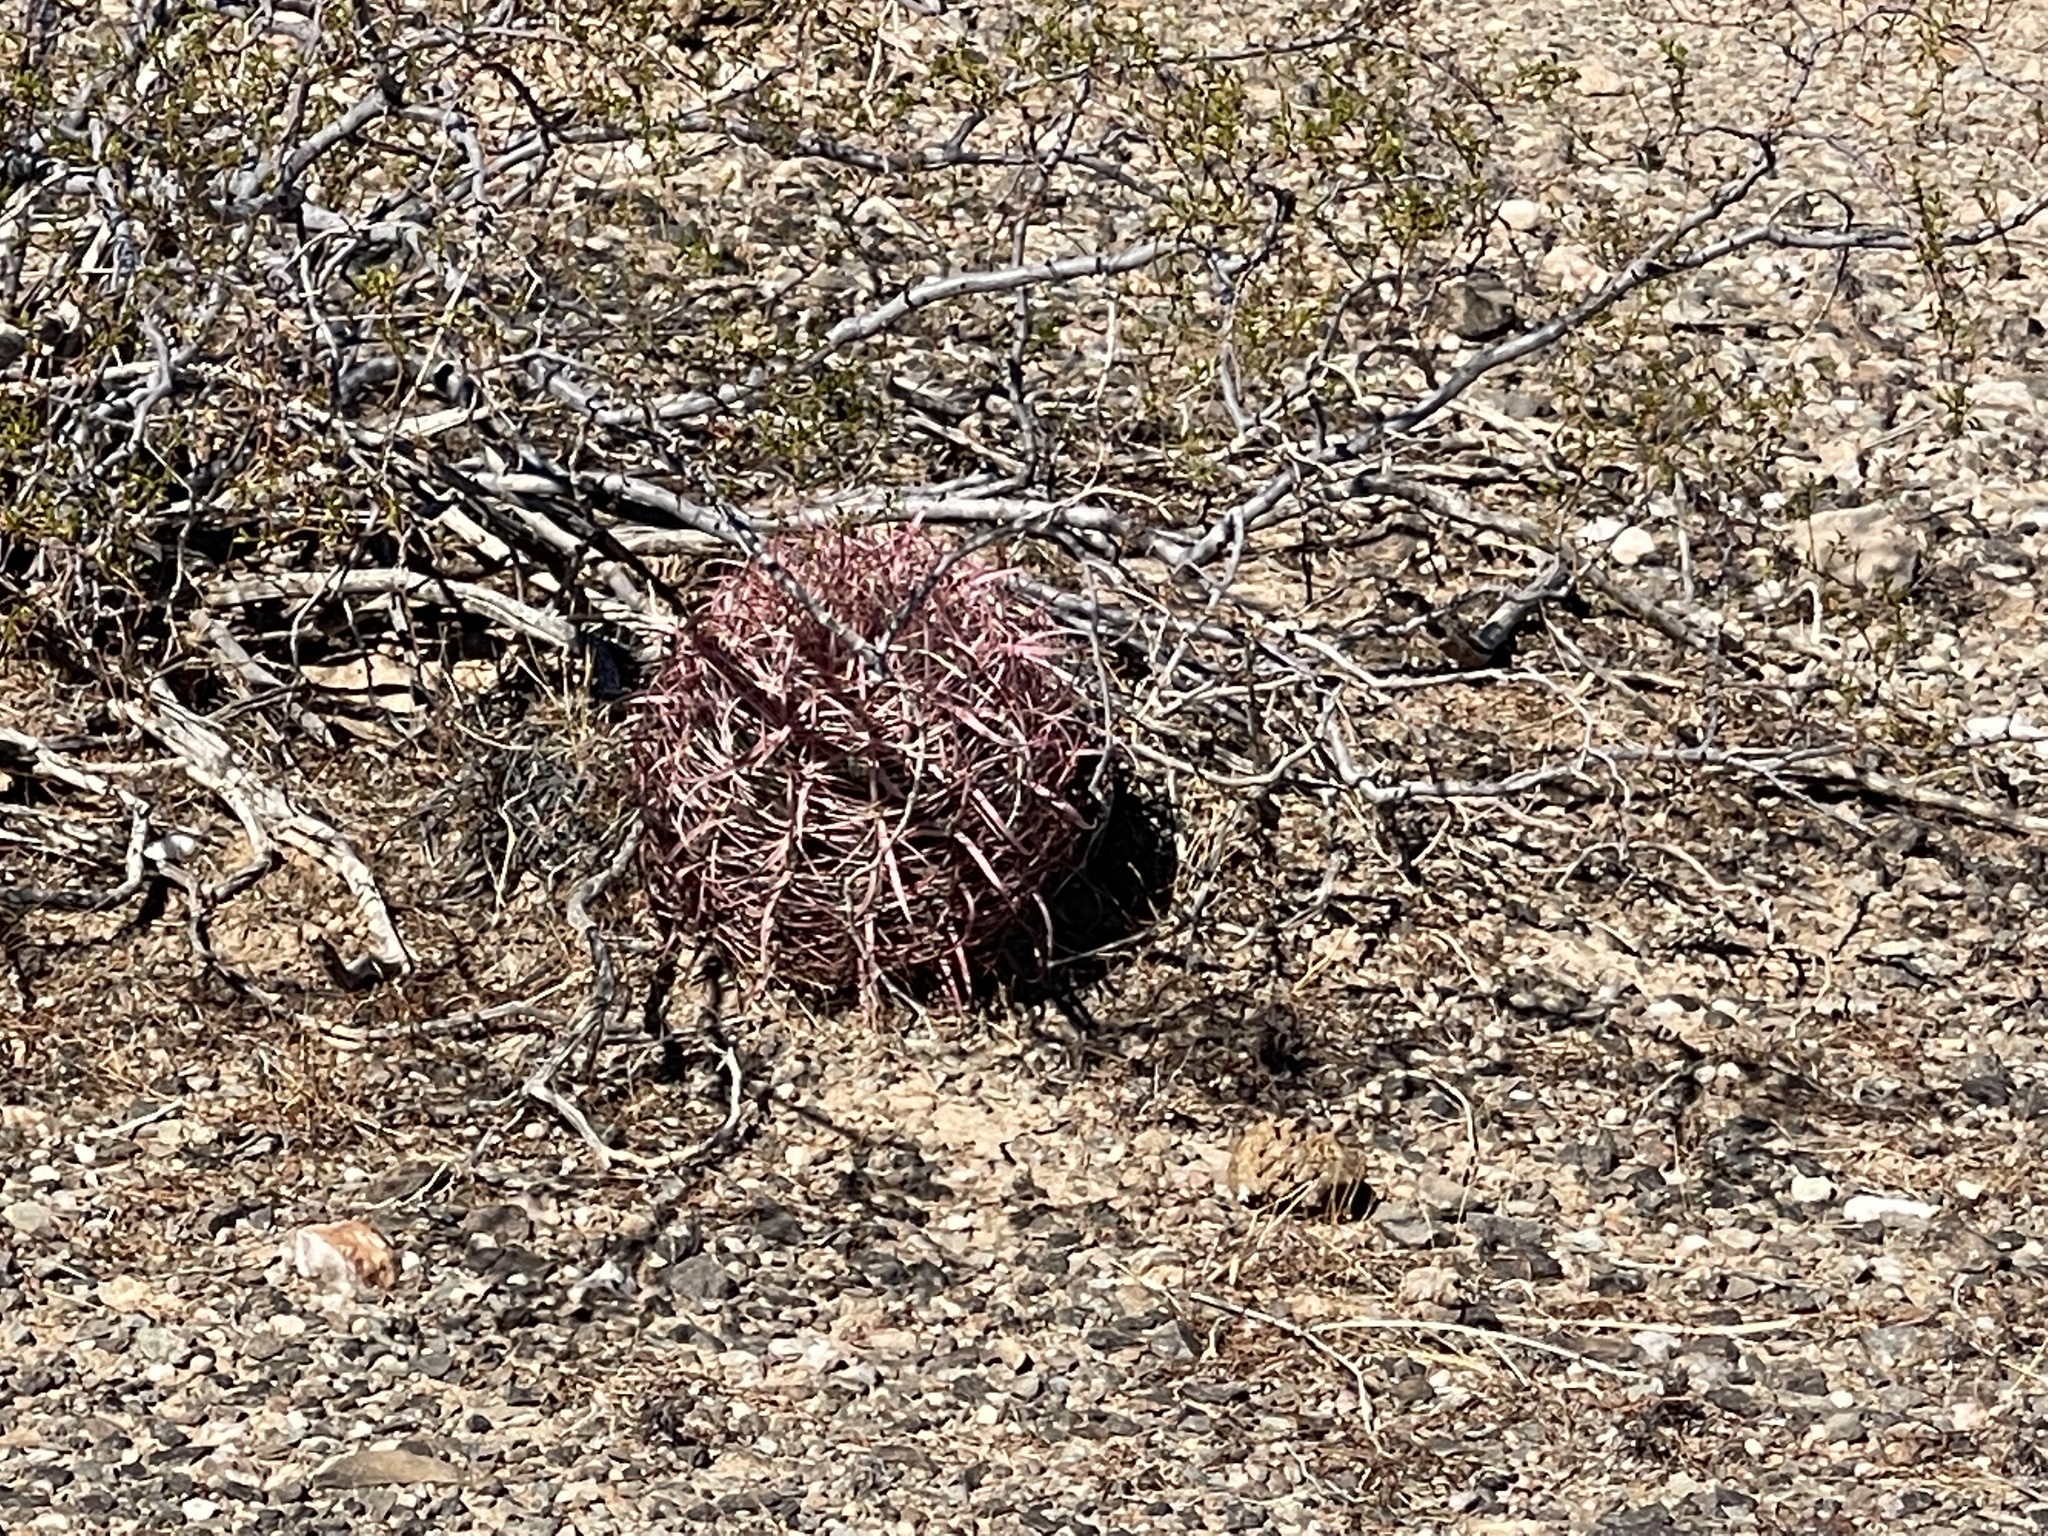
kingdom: Plantae
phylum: Tracheophyta
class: Magnoliopsida
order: Caryophyllales
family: Cactaceae
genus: Ferocactus
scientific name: Ferocactus cylindraceus
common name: California barrel cactus
